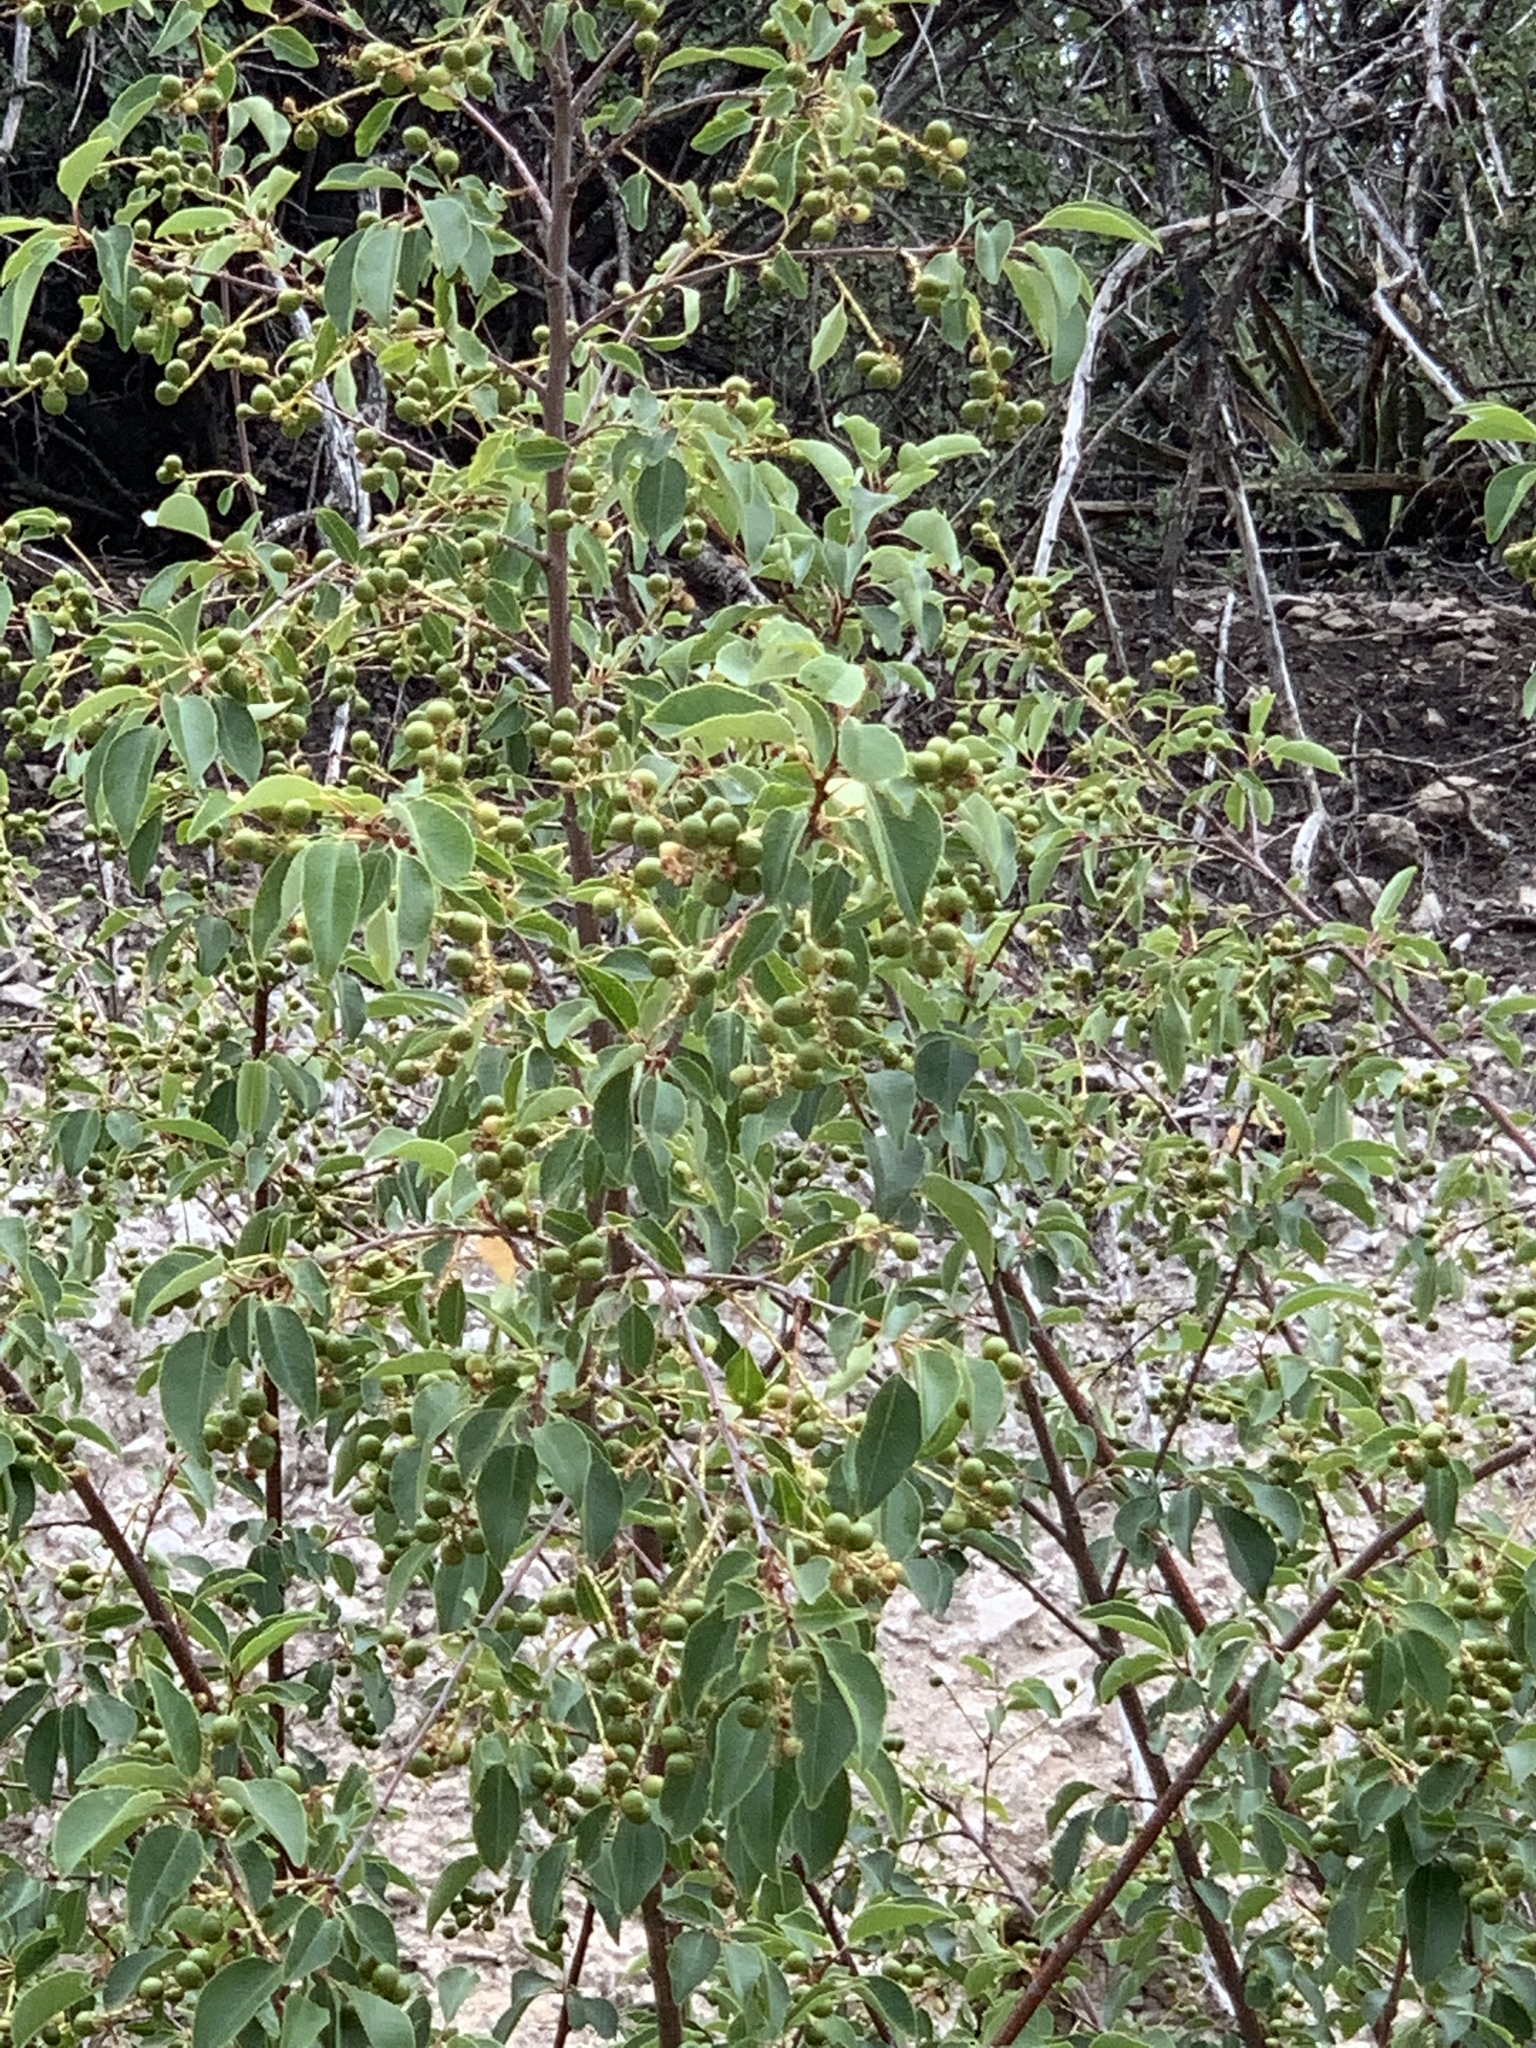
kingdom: Plantae
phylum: Tracheophyta
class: Magnoliopsida
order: Rosales
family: Rosaceae
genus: Prunus
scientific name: Prunus serotina
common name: Black cherry
